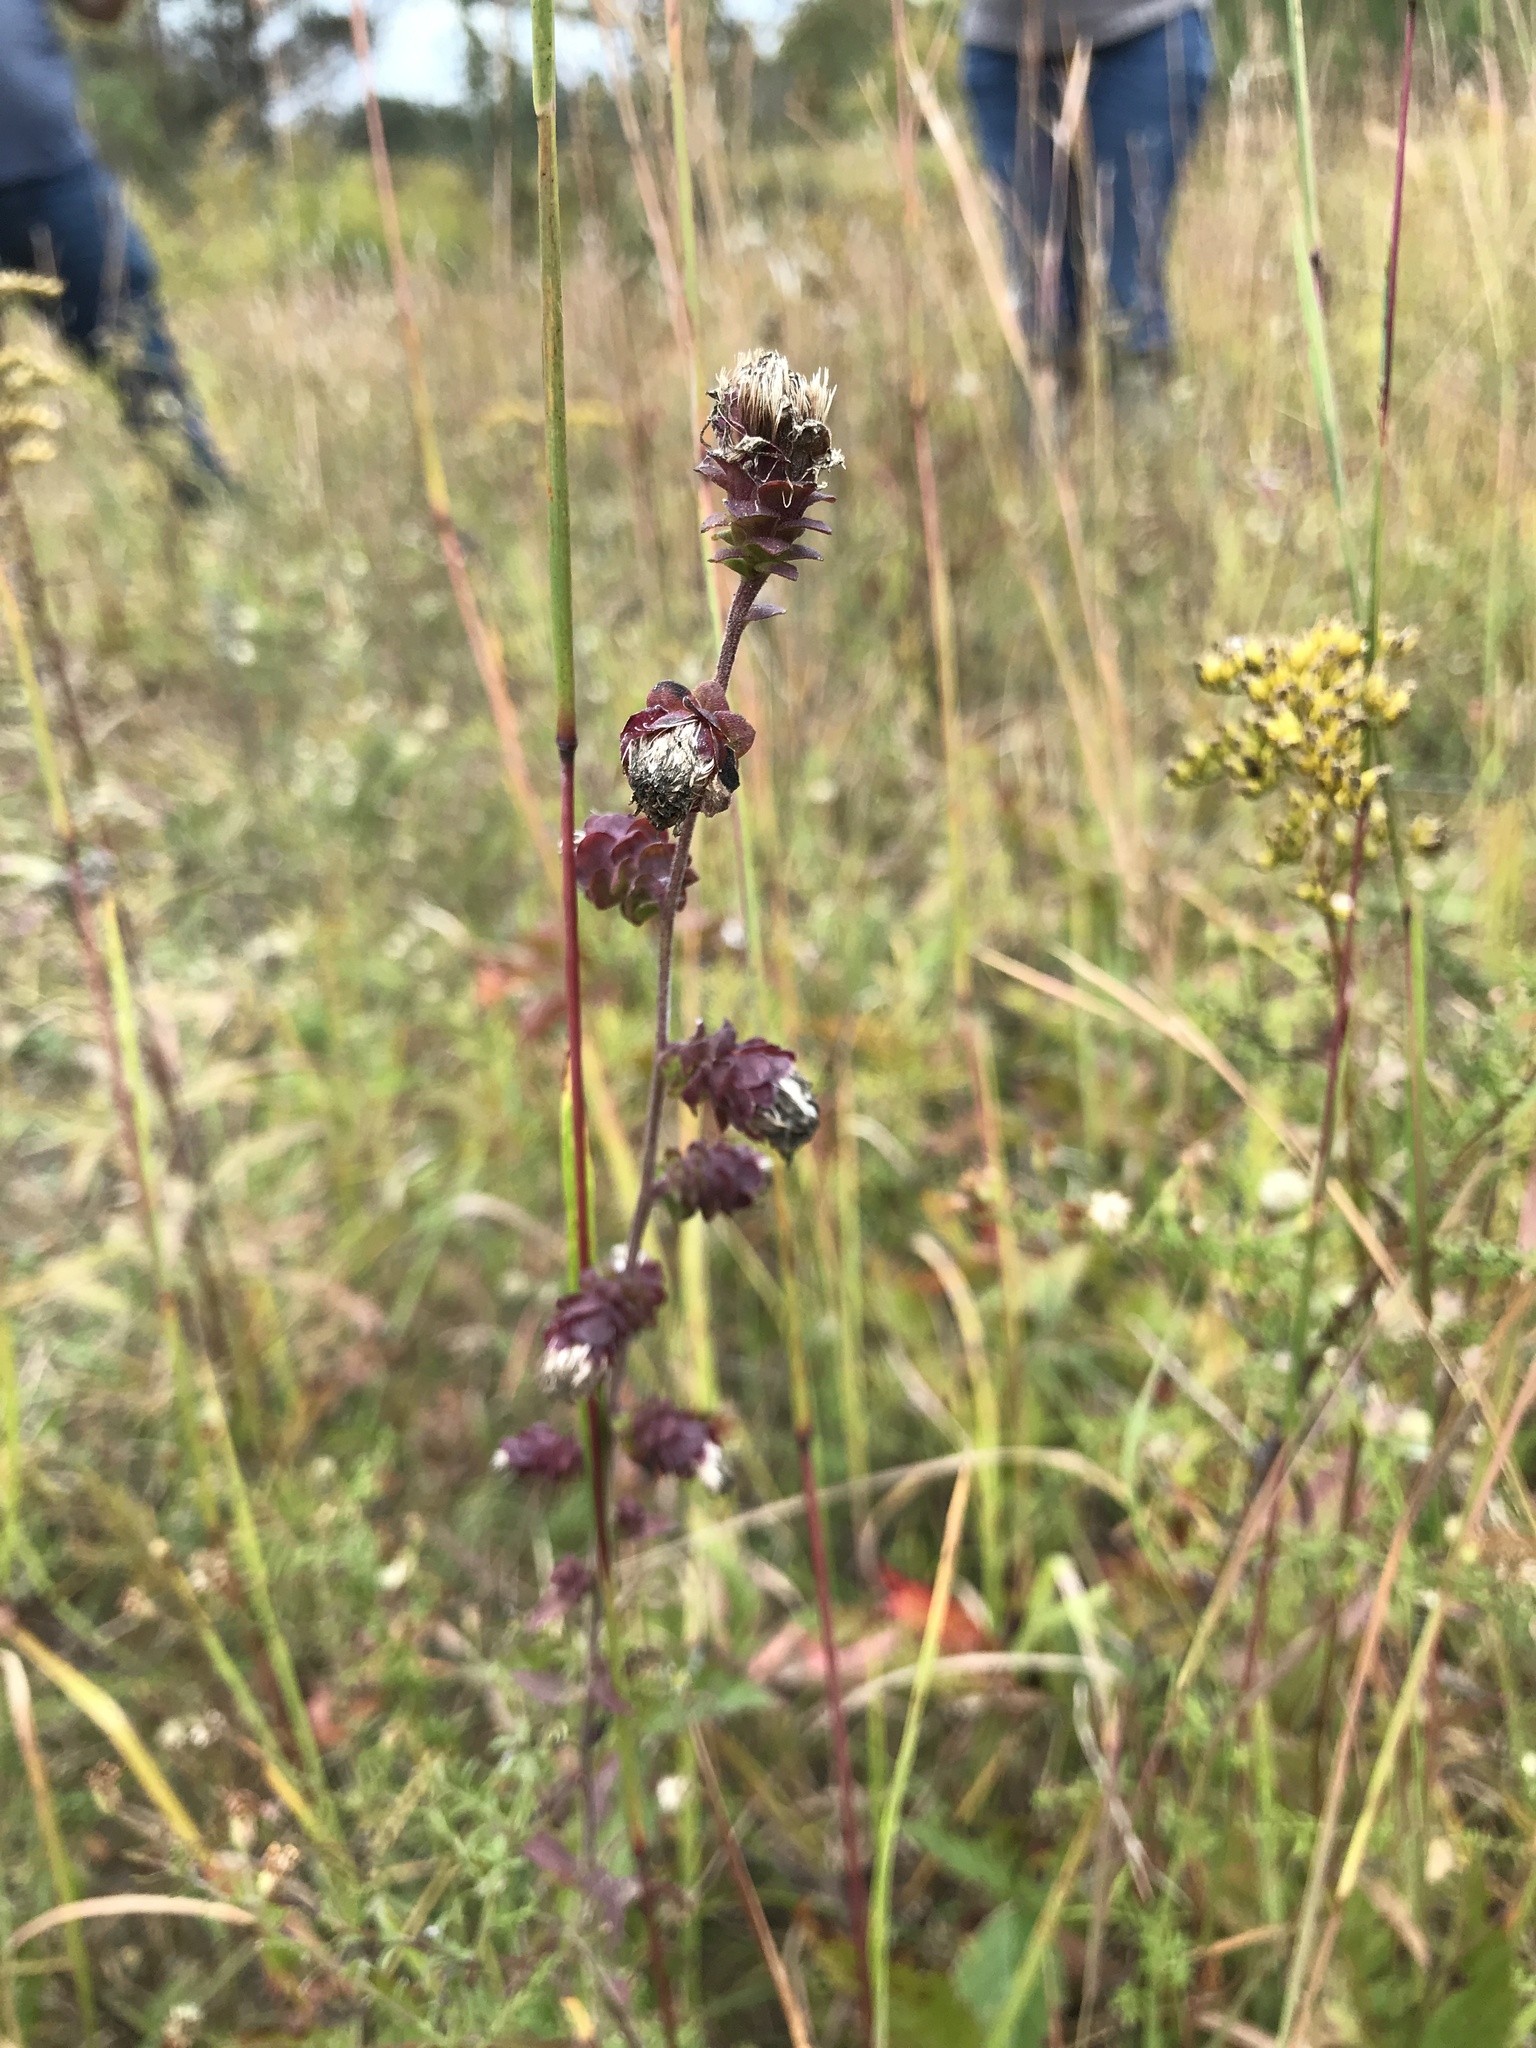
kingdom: Plantae
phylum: Tracheophyta
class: Magnoliopsida
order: Asterales
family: Asteraceae
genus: Liatris
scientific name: Liatris squarrulosa
